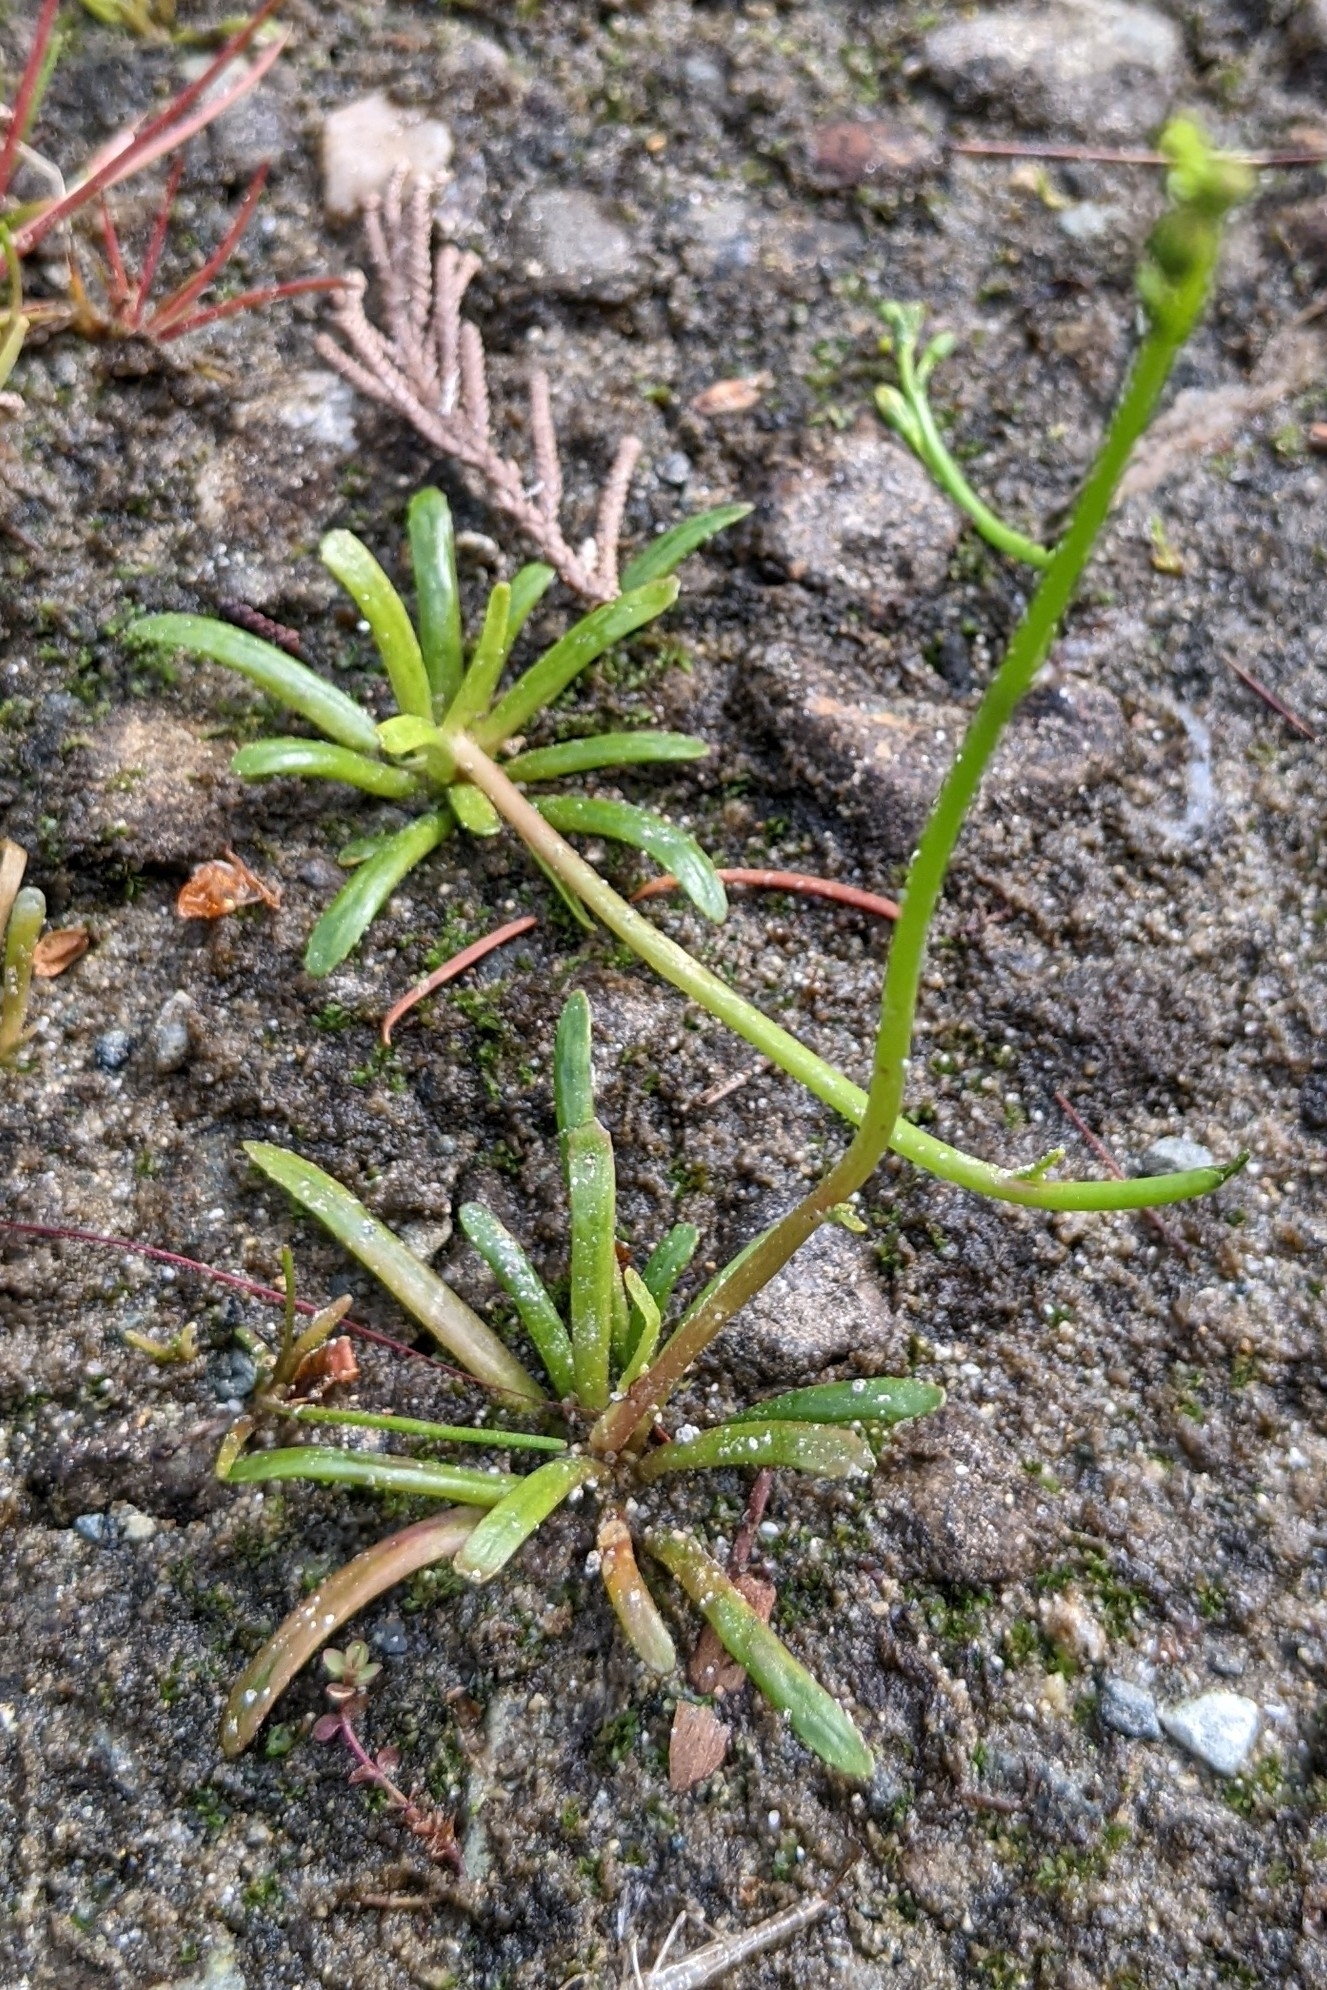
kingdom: Plantae
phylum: Tracheophyta
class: Magnoliopsida
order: Asterales
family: Campanulaceae
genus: Lobelia
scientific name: Lobelia dortmanna
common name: Water lobelia
